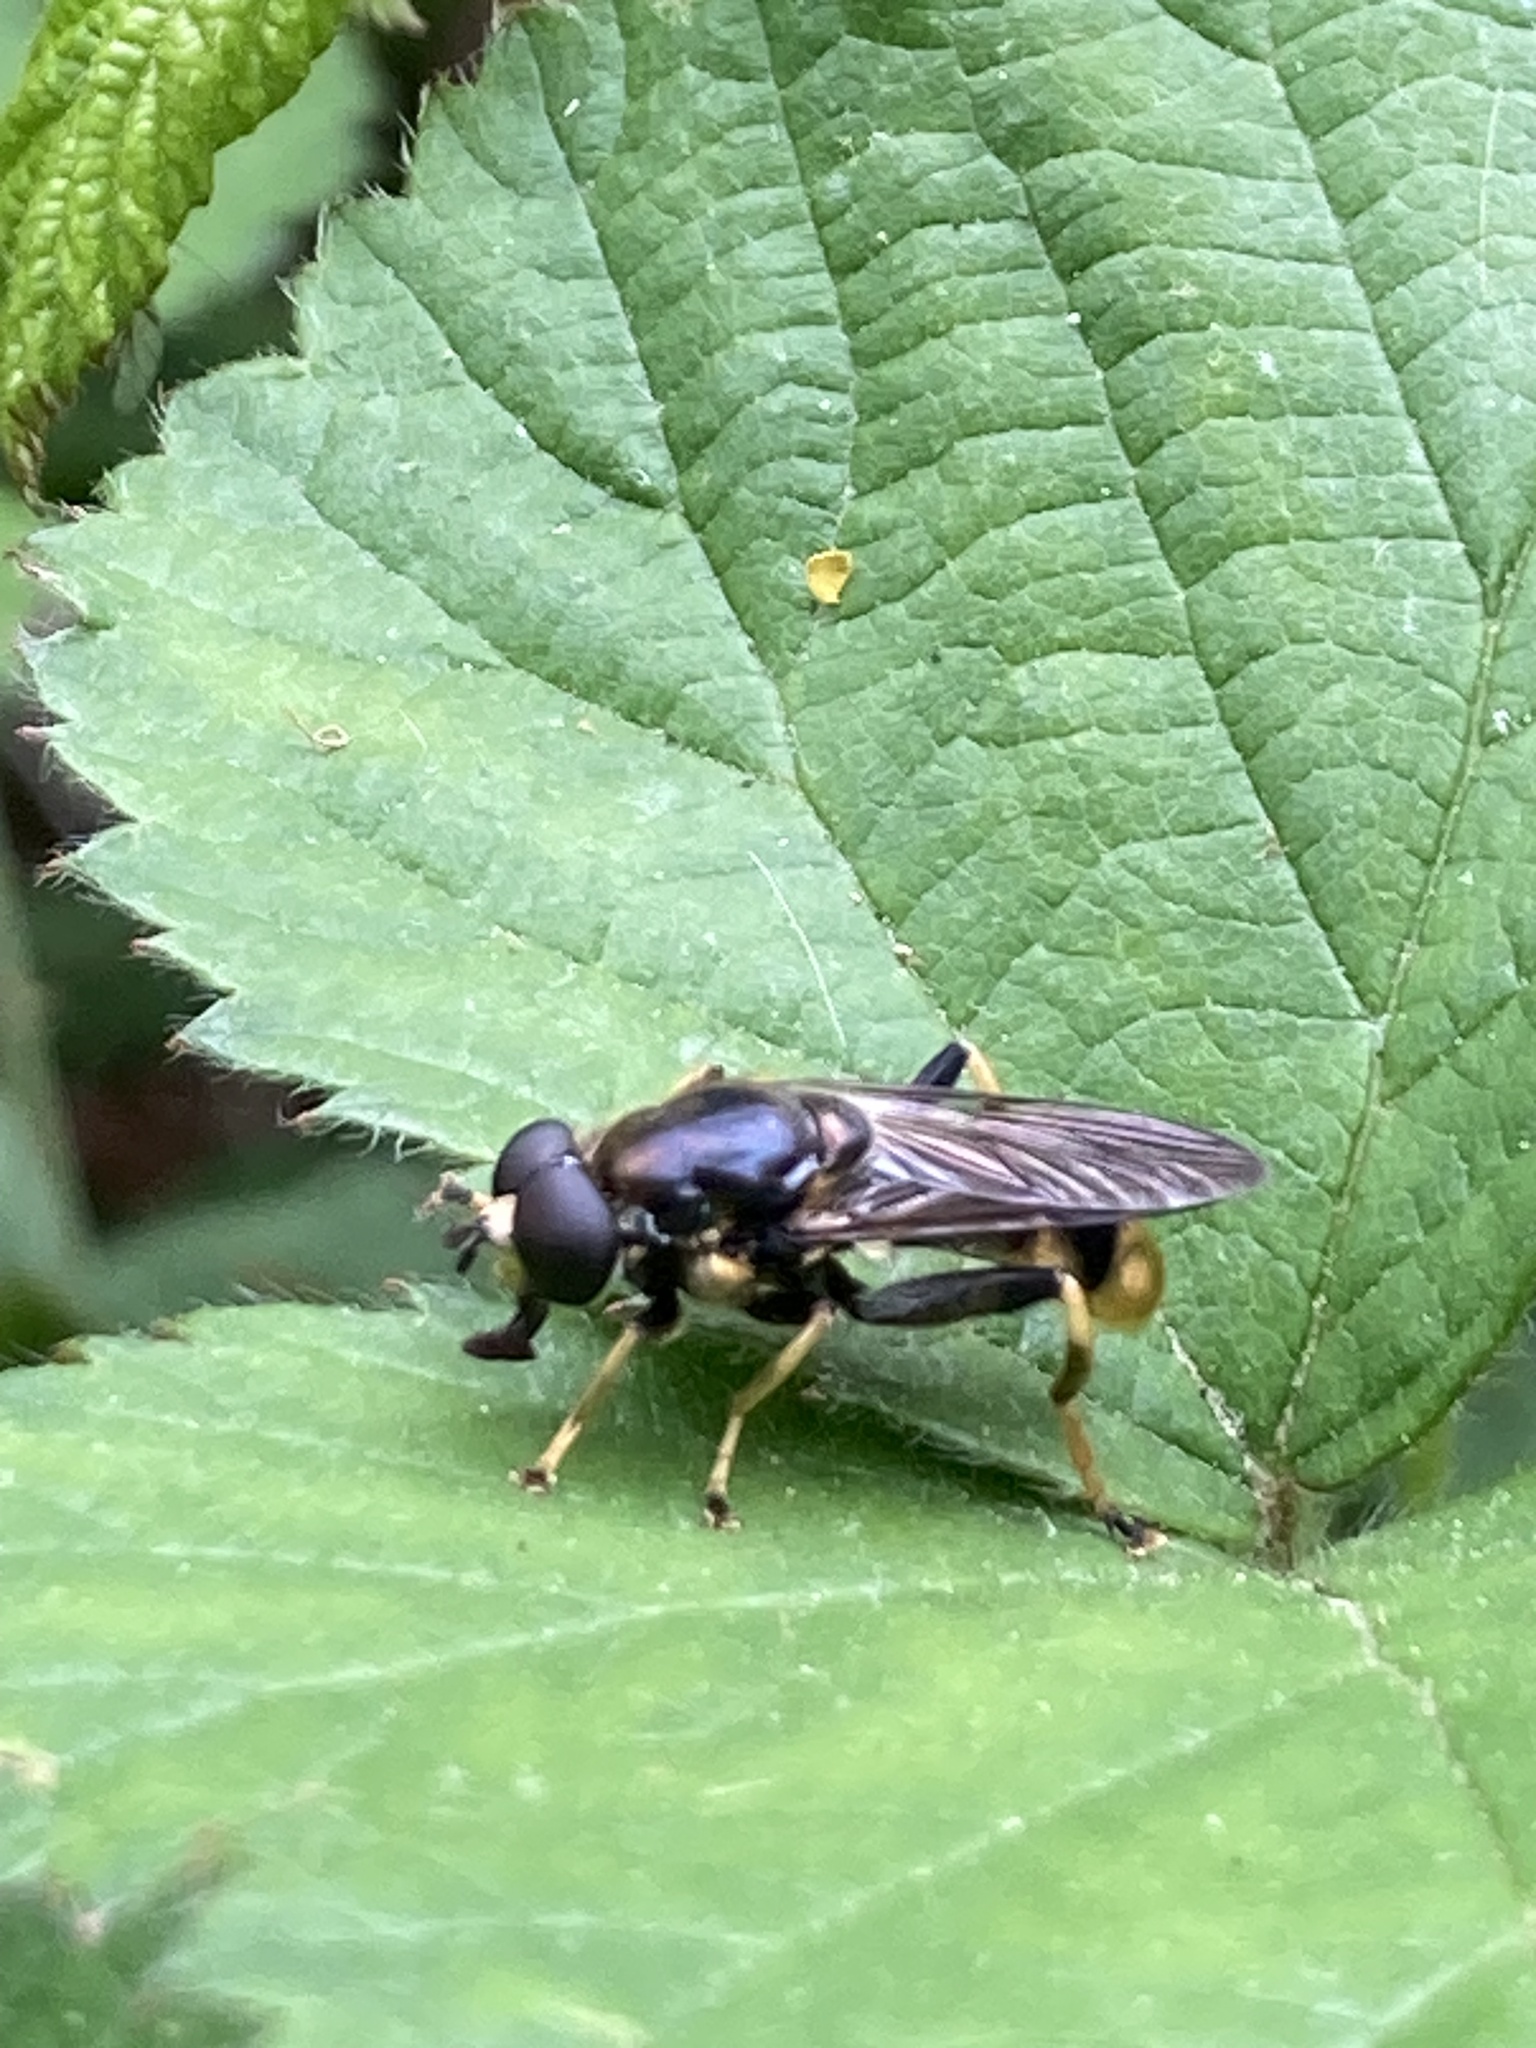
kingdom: Animalia
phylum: Arthropoda
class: Insecta
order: Diptera
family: Syrphidae
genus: Xylota
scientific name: Xylota sylvarum
